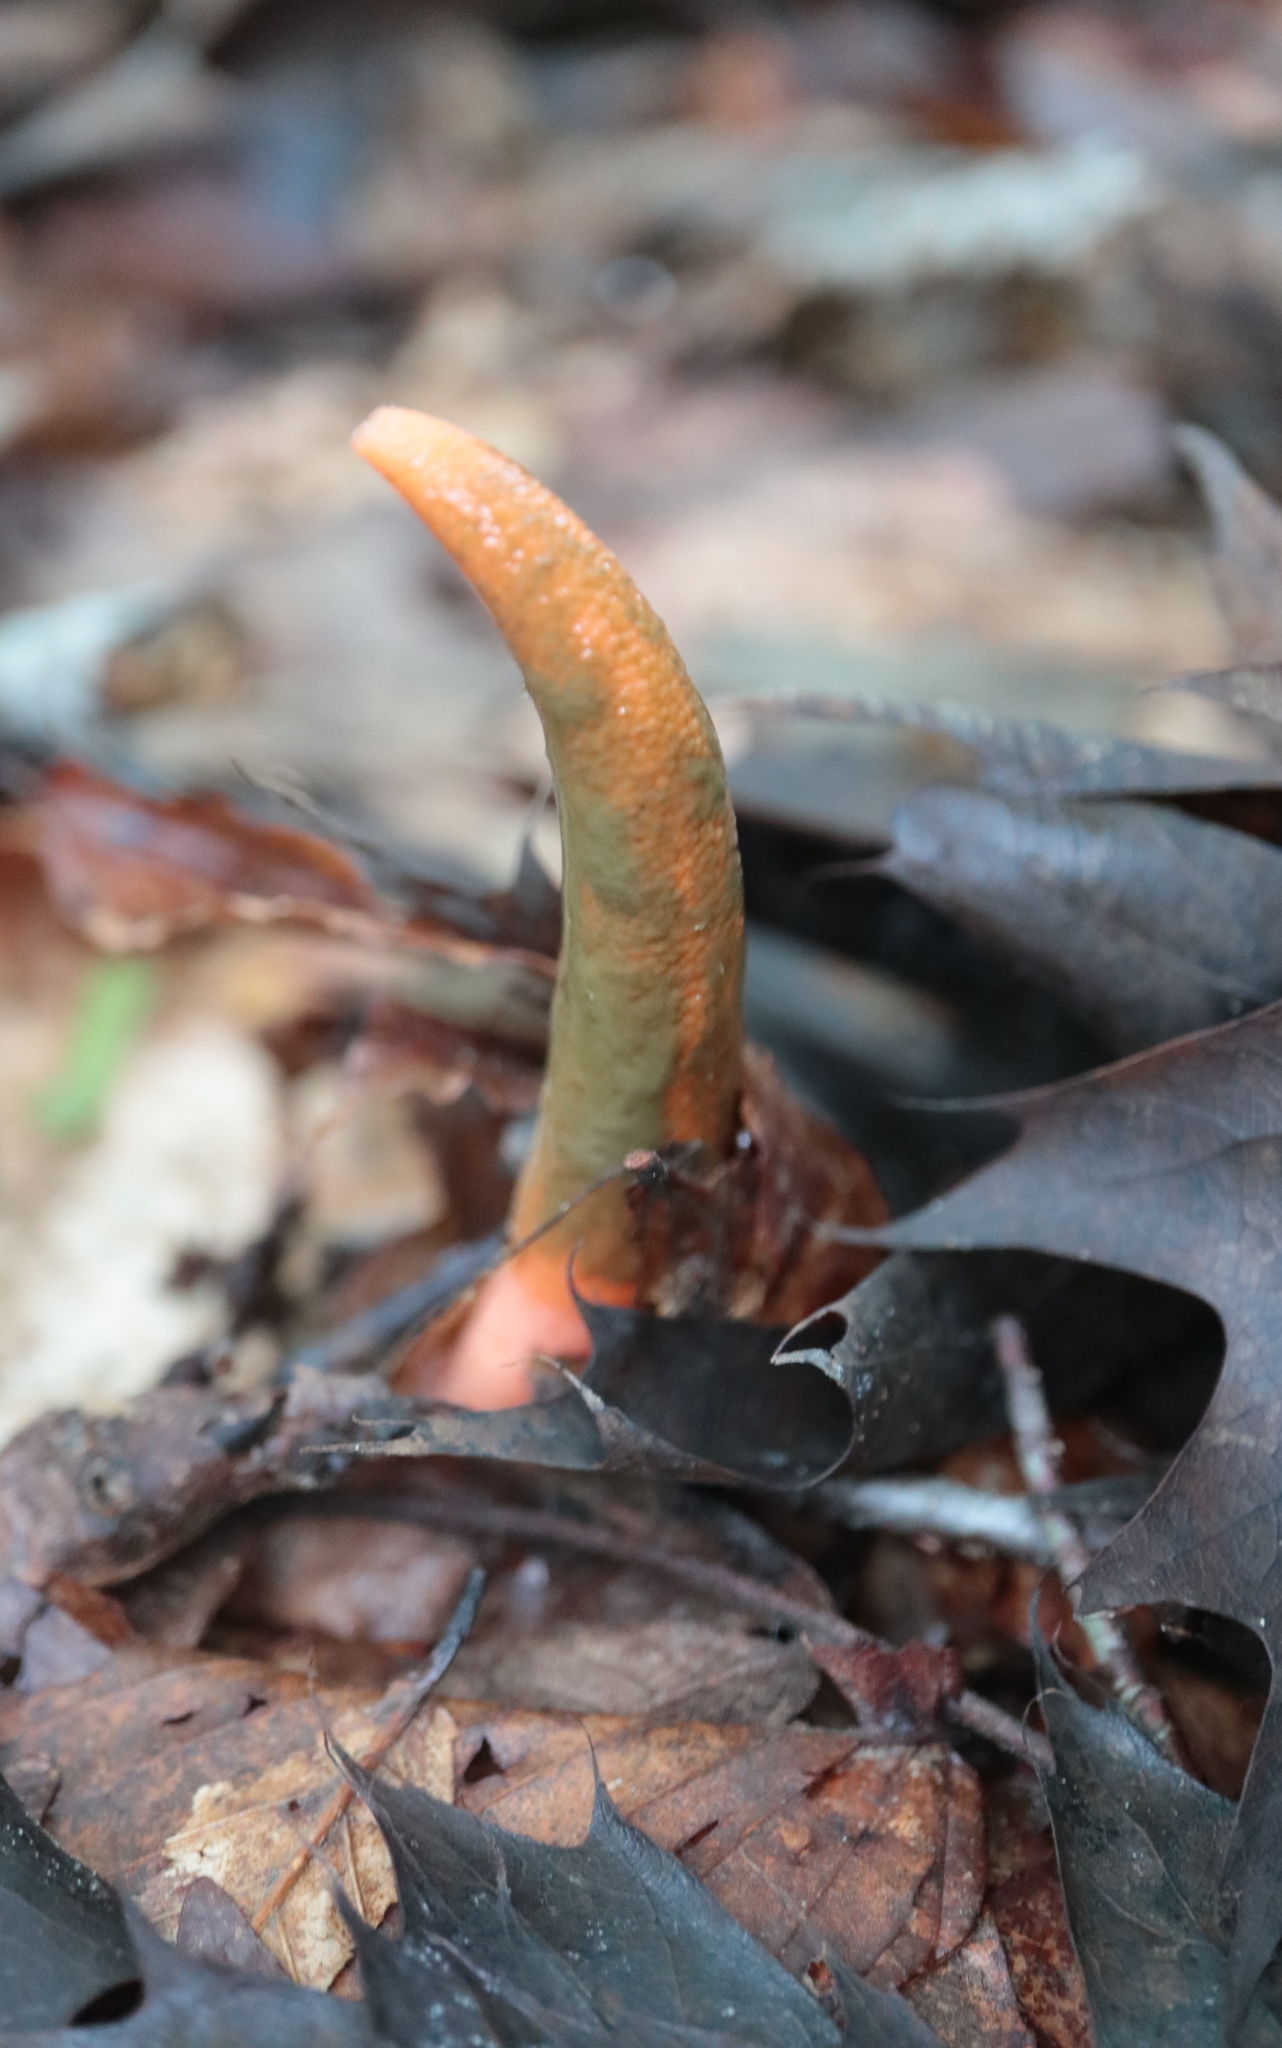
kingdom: Fungi
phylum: Basidiomycota
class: Agaricomycetes
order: Phallales
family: Phallaceae
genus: Mutinus
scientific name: Mutinus elegans
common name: Devil's dipstick
